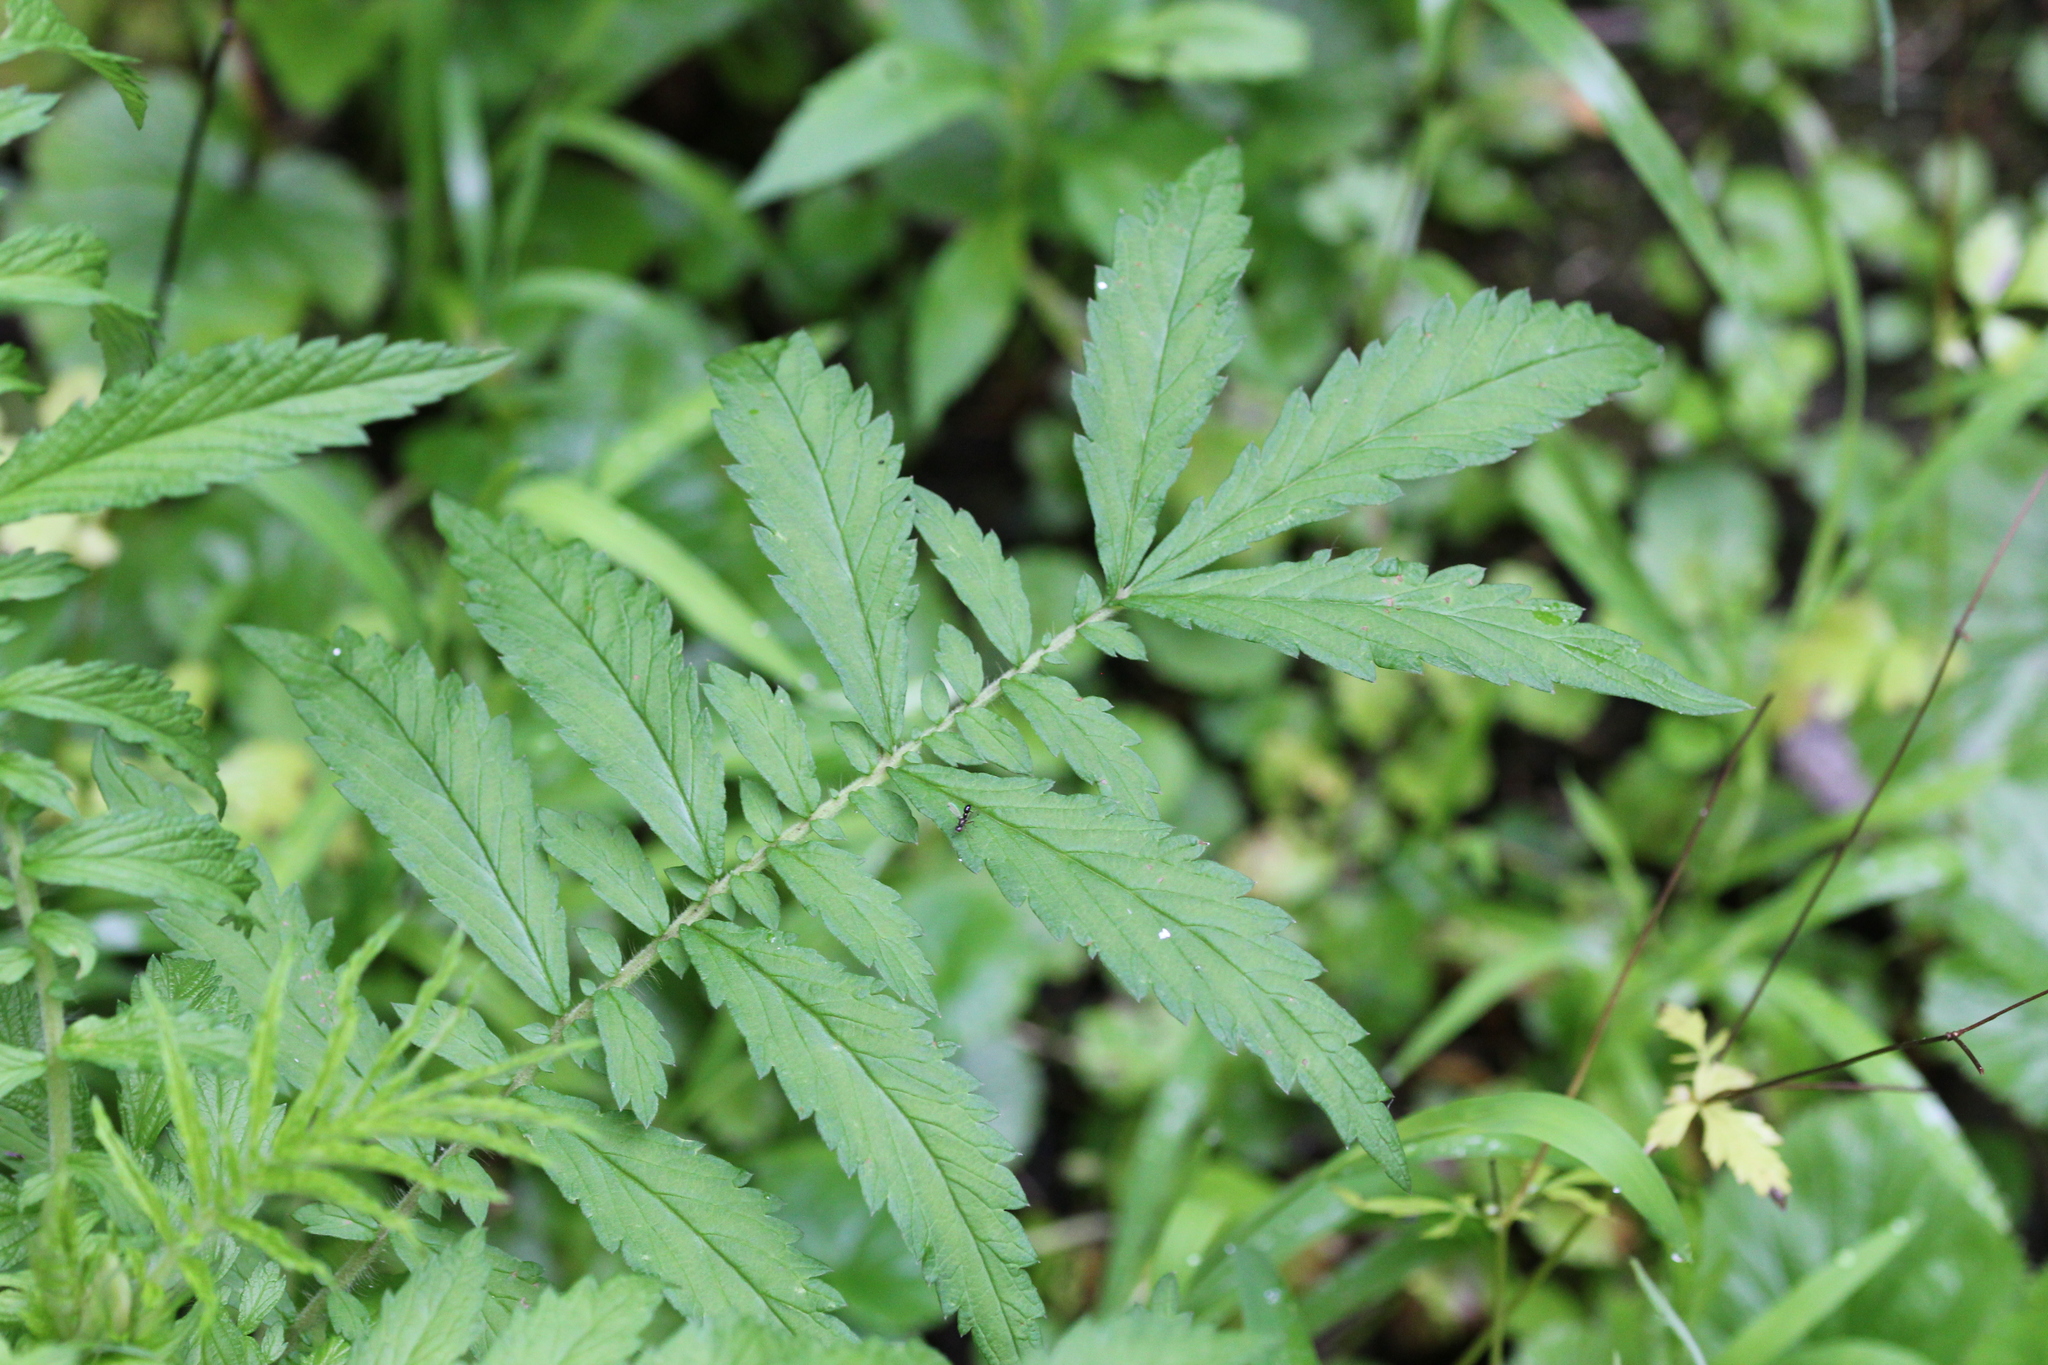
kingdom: Plantae
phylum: Tracheophyta
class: Magnoliopsida
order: Rosales
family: Rosaceae
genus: Agrimonia
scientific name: Agrimonia parviflora
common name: Harvest-lice
